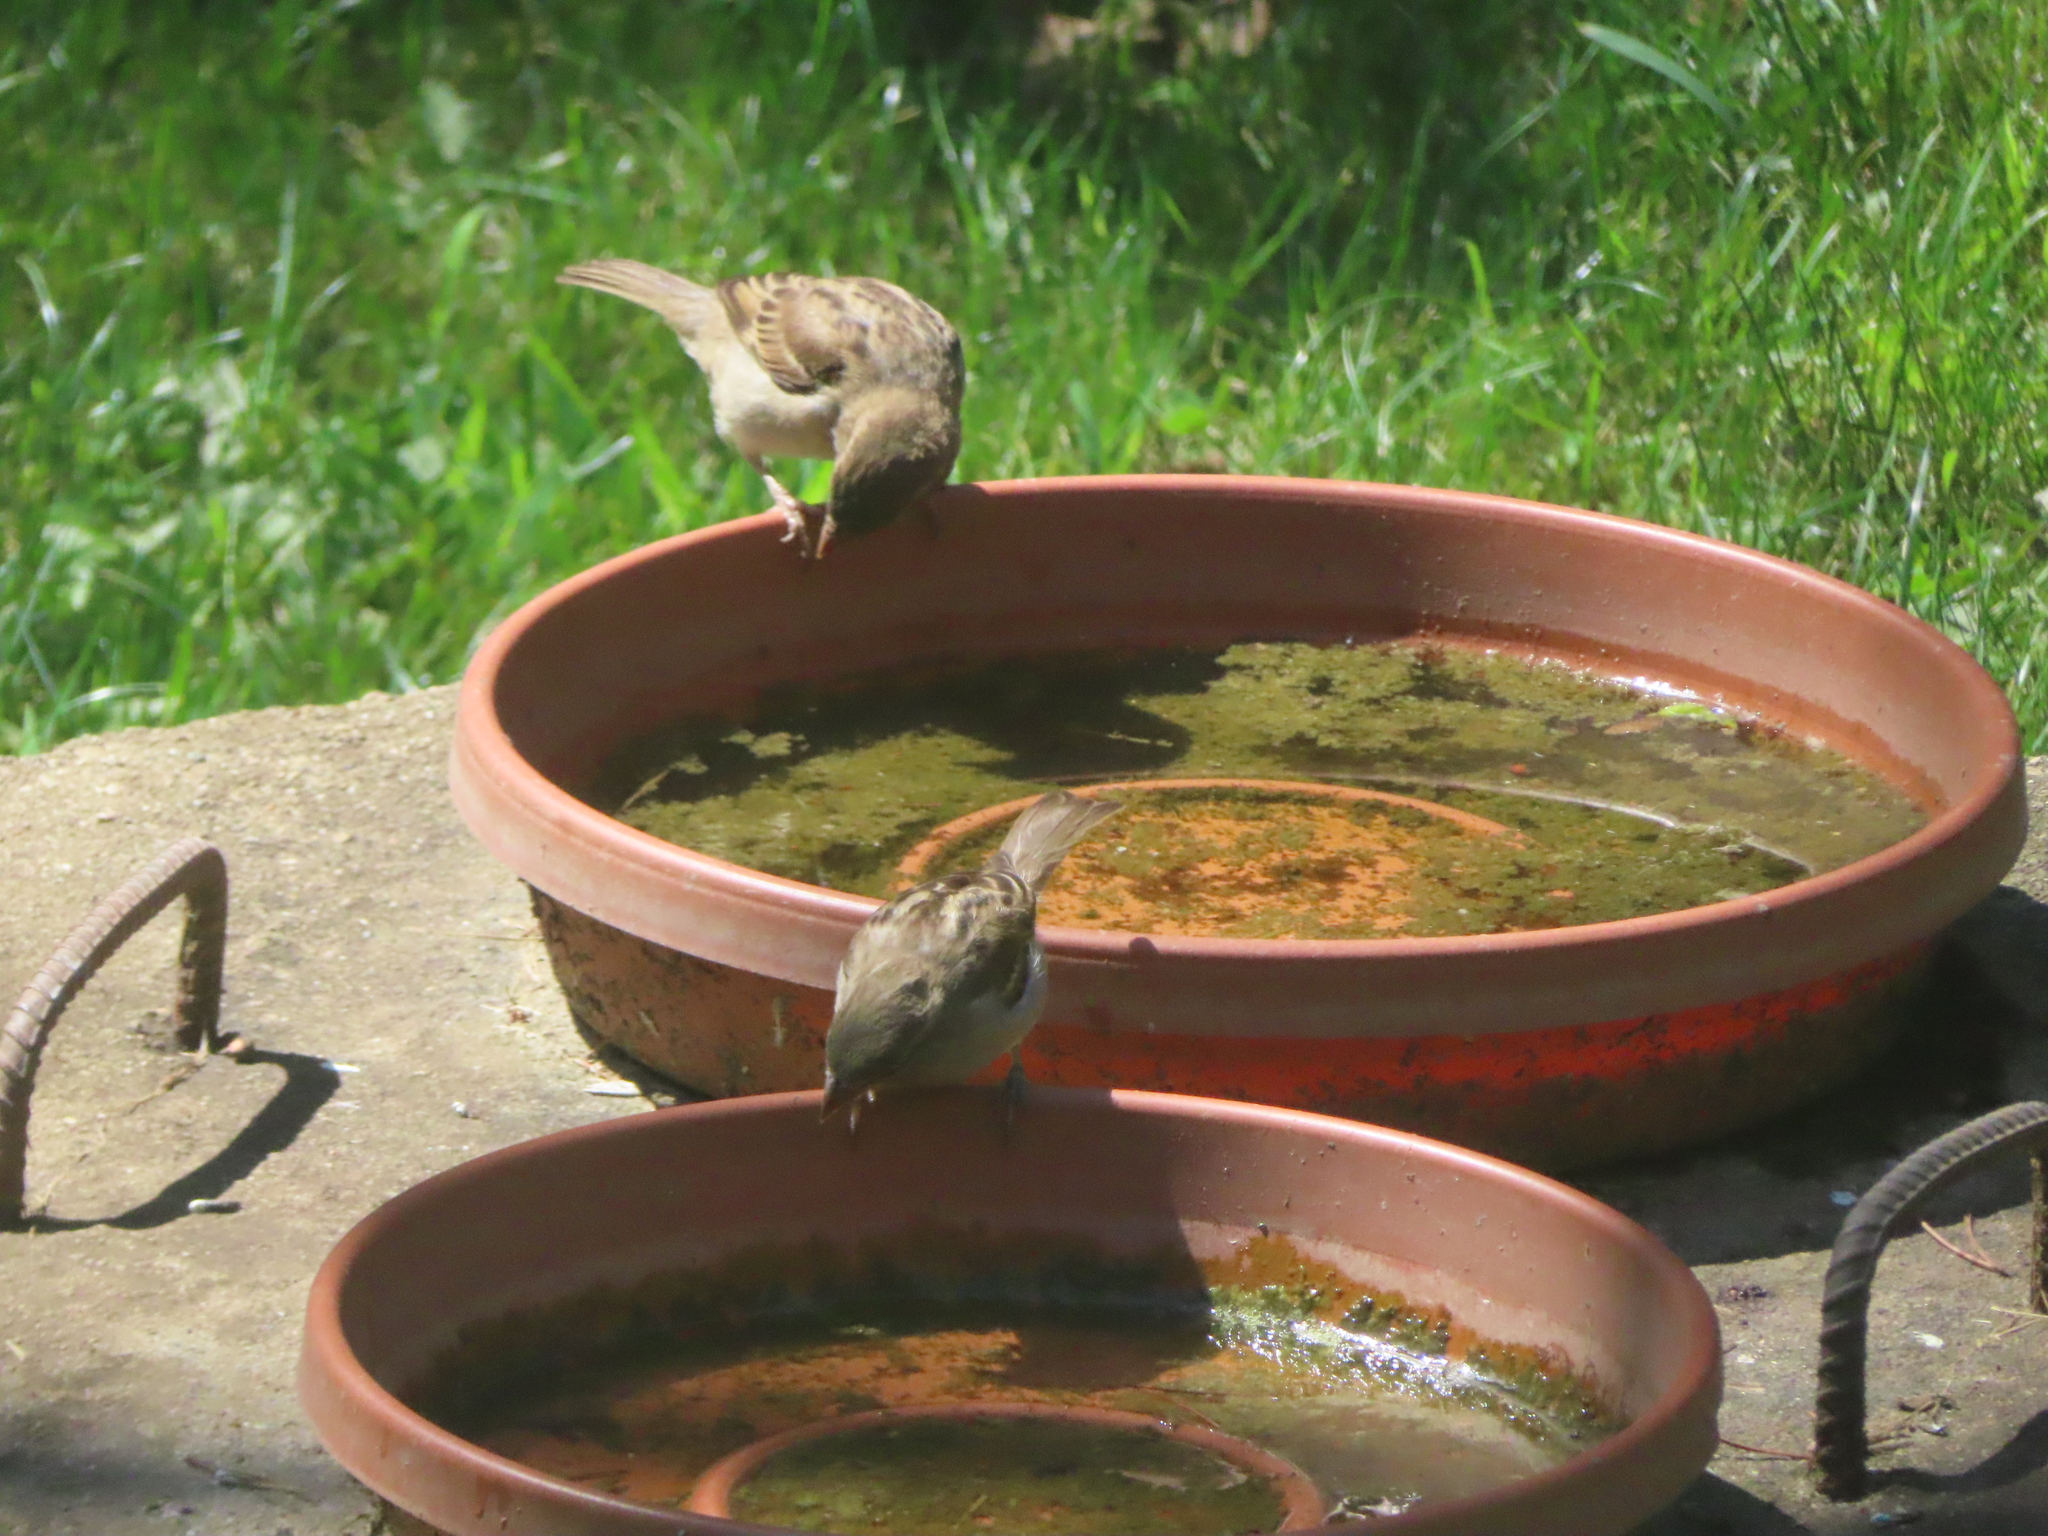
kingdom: Animalia
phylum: Chordata
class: Aves
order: Passeriformes
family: Passeridae
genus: Passer
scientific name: Passer domesticus
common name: House sparrow
